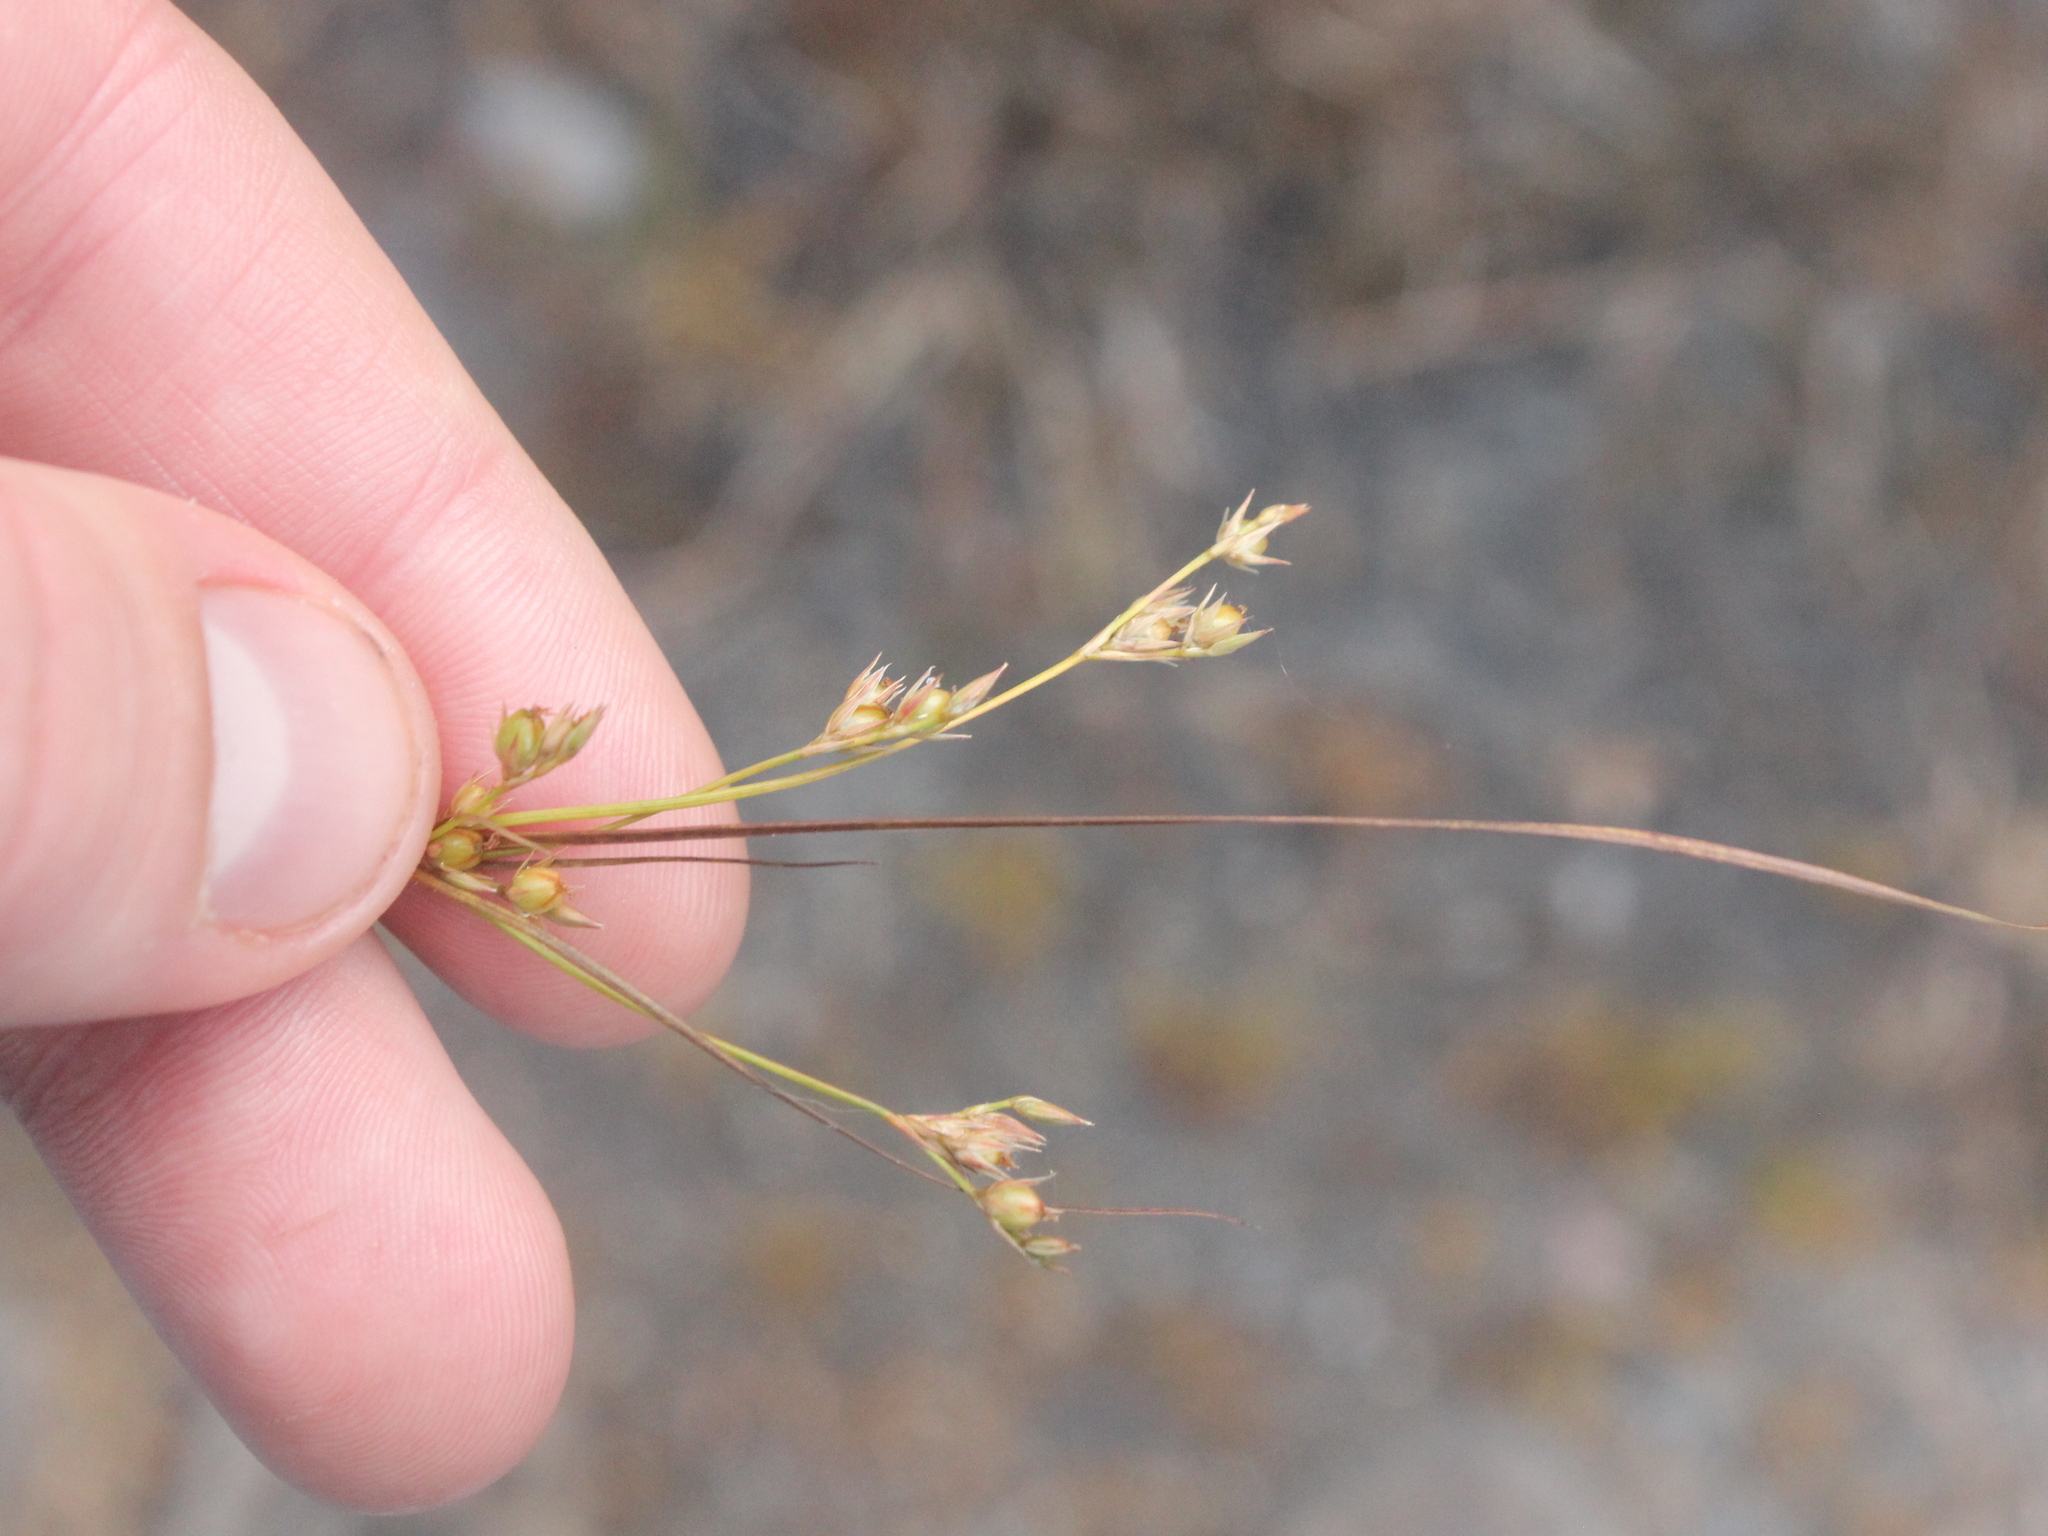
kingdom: Plantae
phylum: Tracheophyta
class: Liliopsida
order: Poales
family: Juncaceae
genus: Juncus
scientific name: Juncus tenuis
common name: Slender rush
